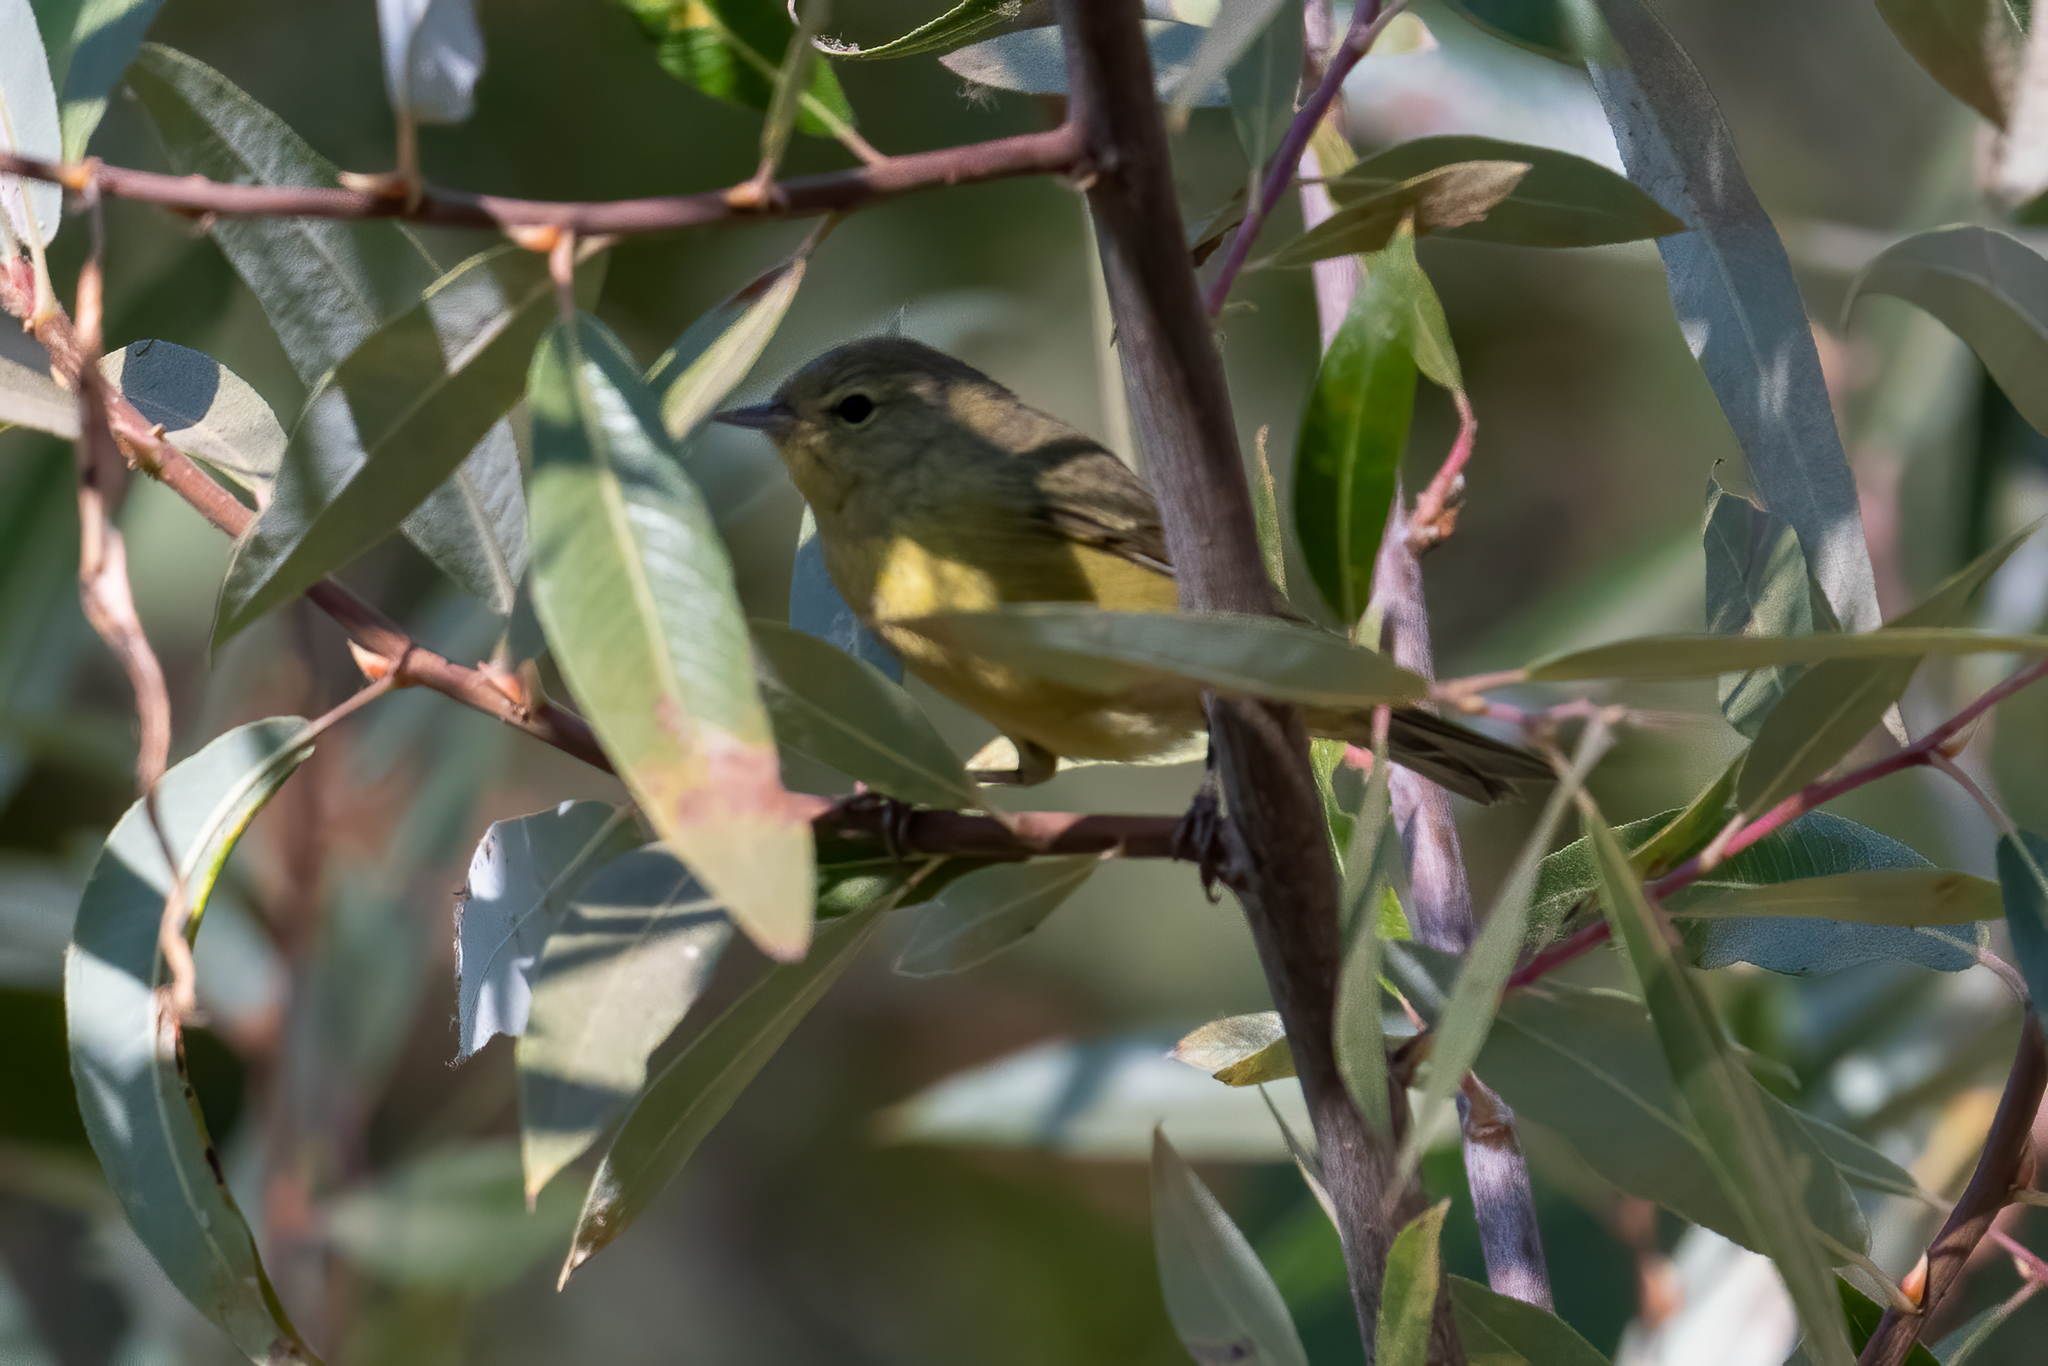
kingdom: Animalia
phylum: Chordata
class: Aves
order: Passeriformes
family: Parulidae
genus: Leiothlypis
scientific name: Leiothlypis celata
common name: Orange-crowned warbler
